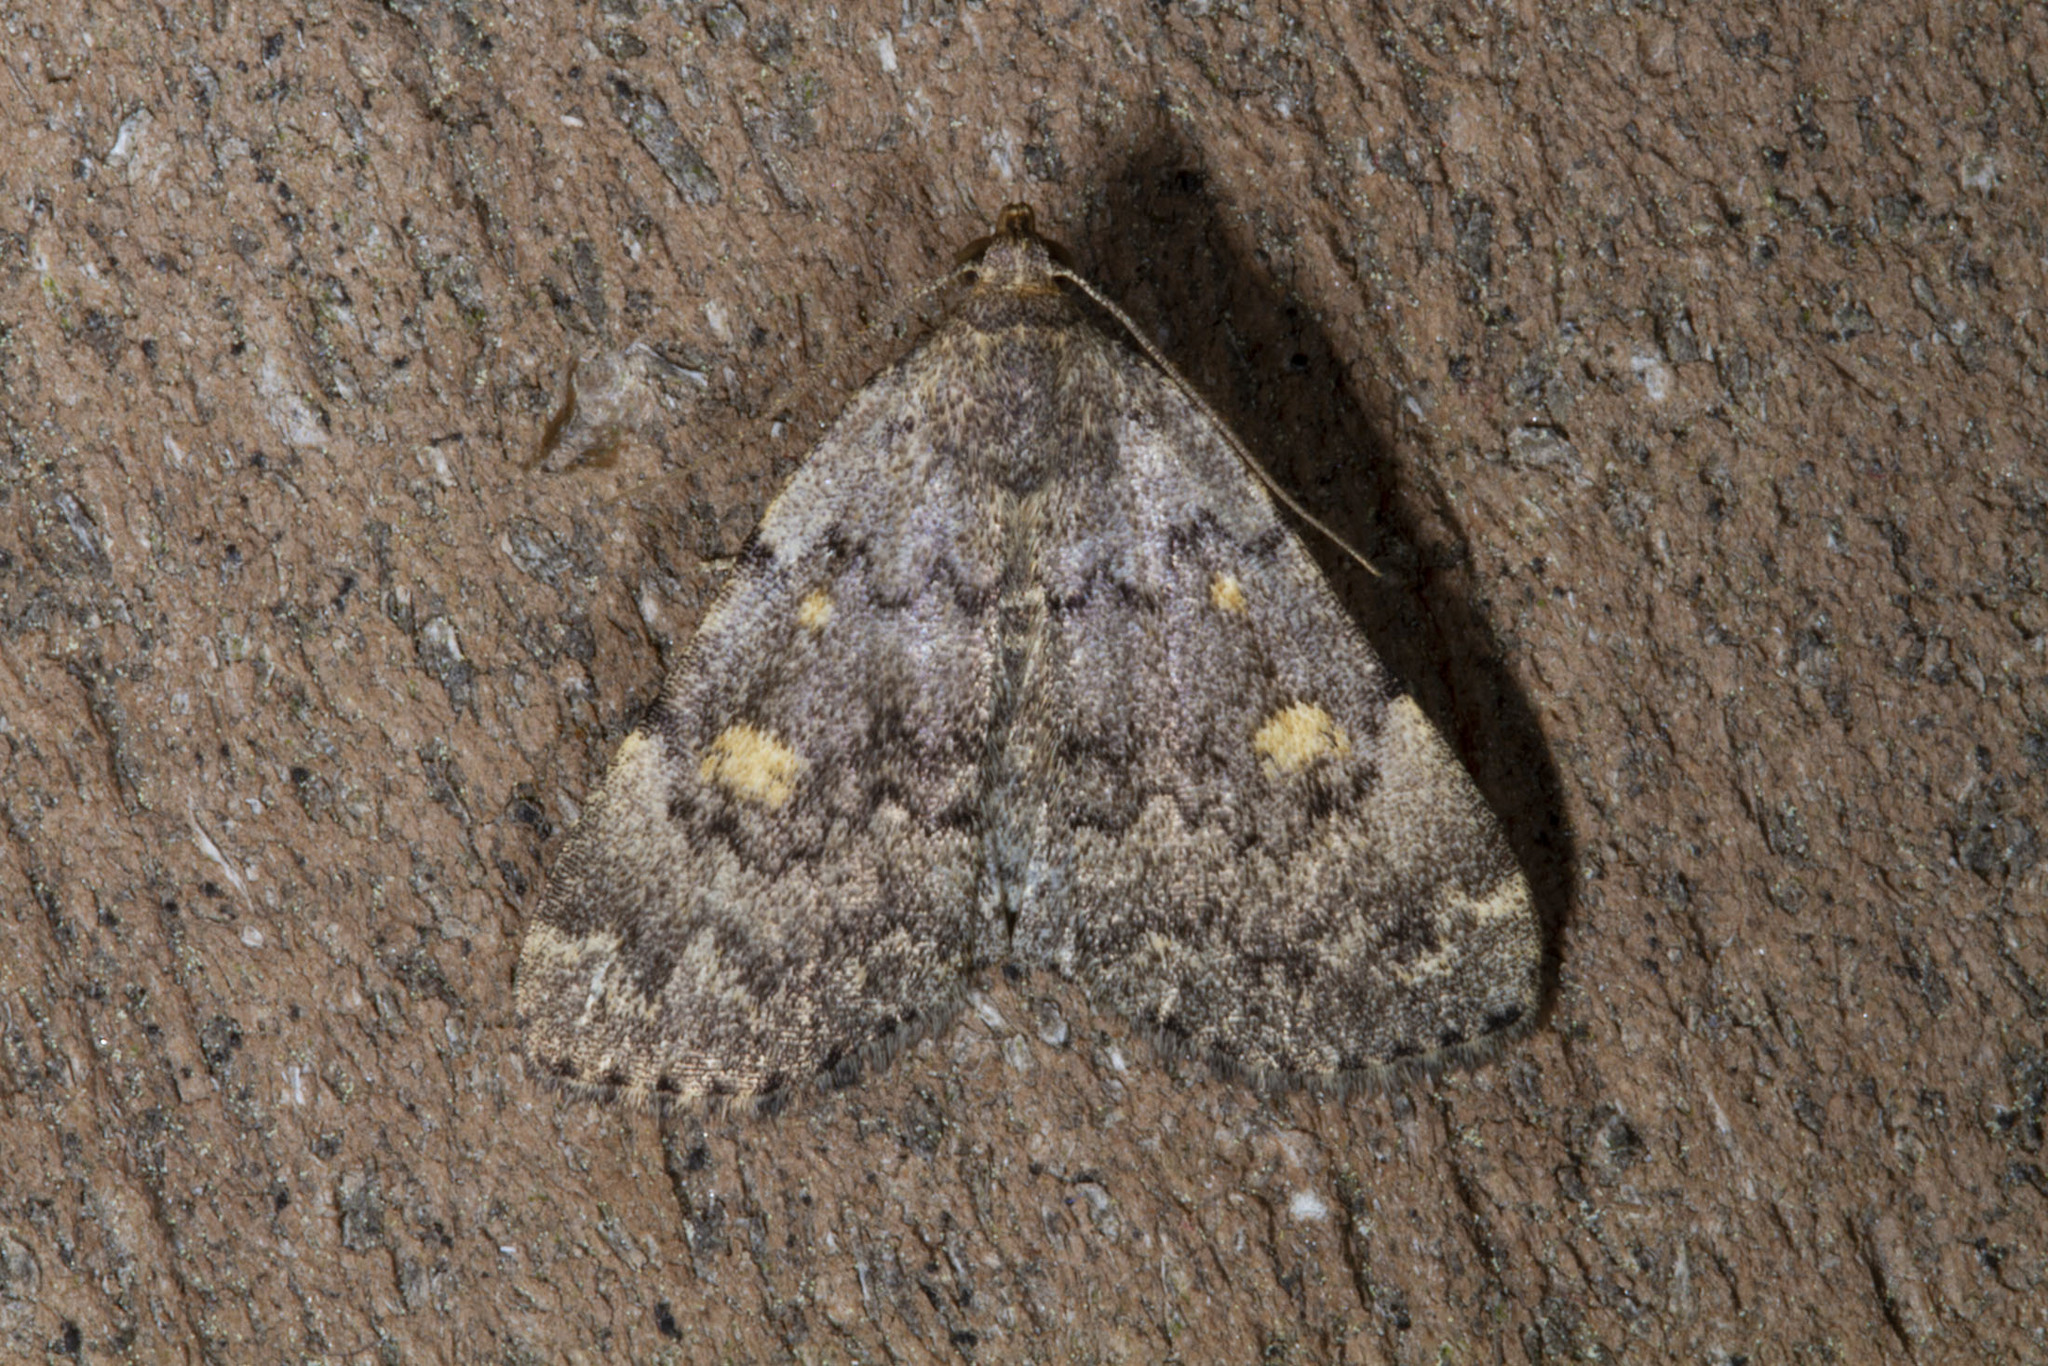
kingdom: Animalia
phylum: Arthropoda
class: Insecta
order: Lepidoptera
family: Erebidae
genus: Idia
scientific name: Idia aemula
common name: Common idia moth
